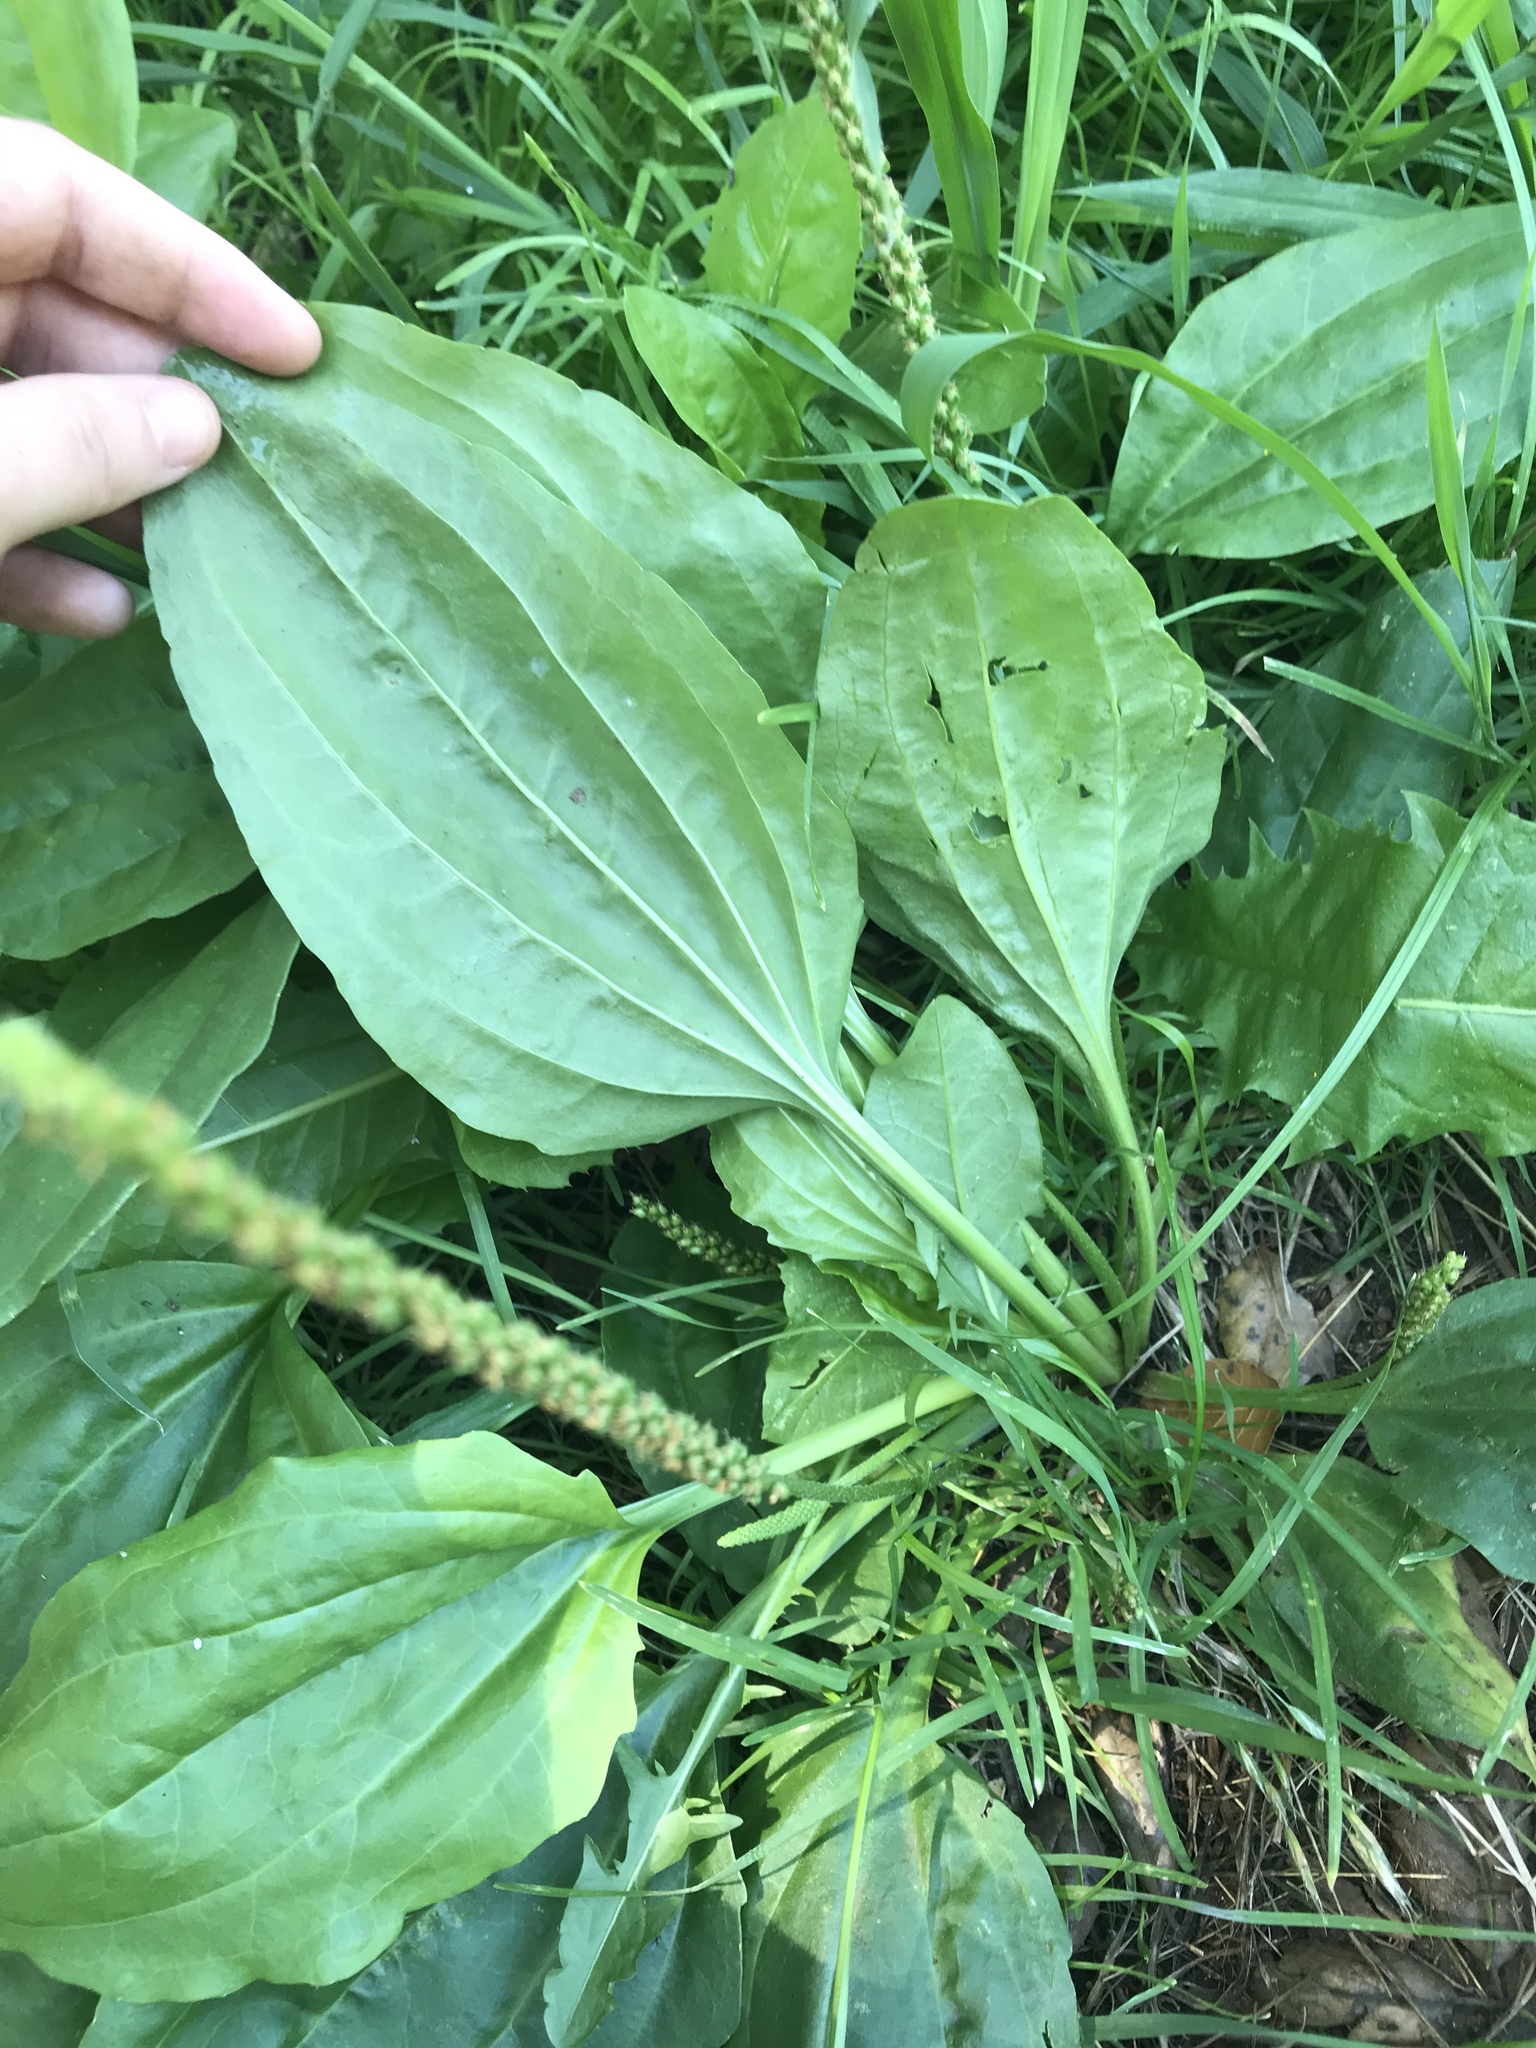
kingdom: Plantae
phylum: Tracheophyta
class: Magnoliopsida
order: Lamiales
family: Plantaginaceae
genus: Plantago
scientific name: Plantago major
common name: Common plantain
